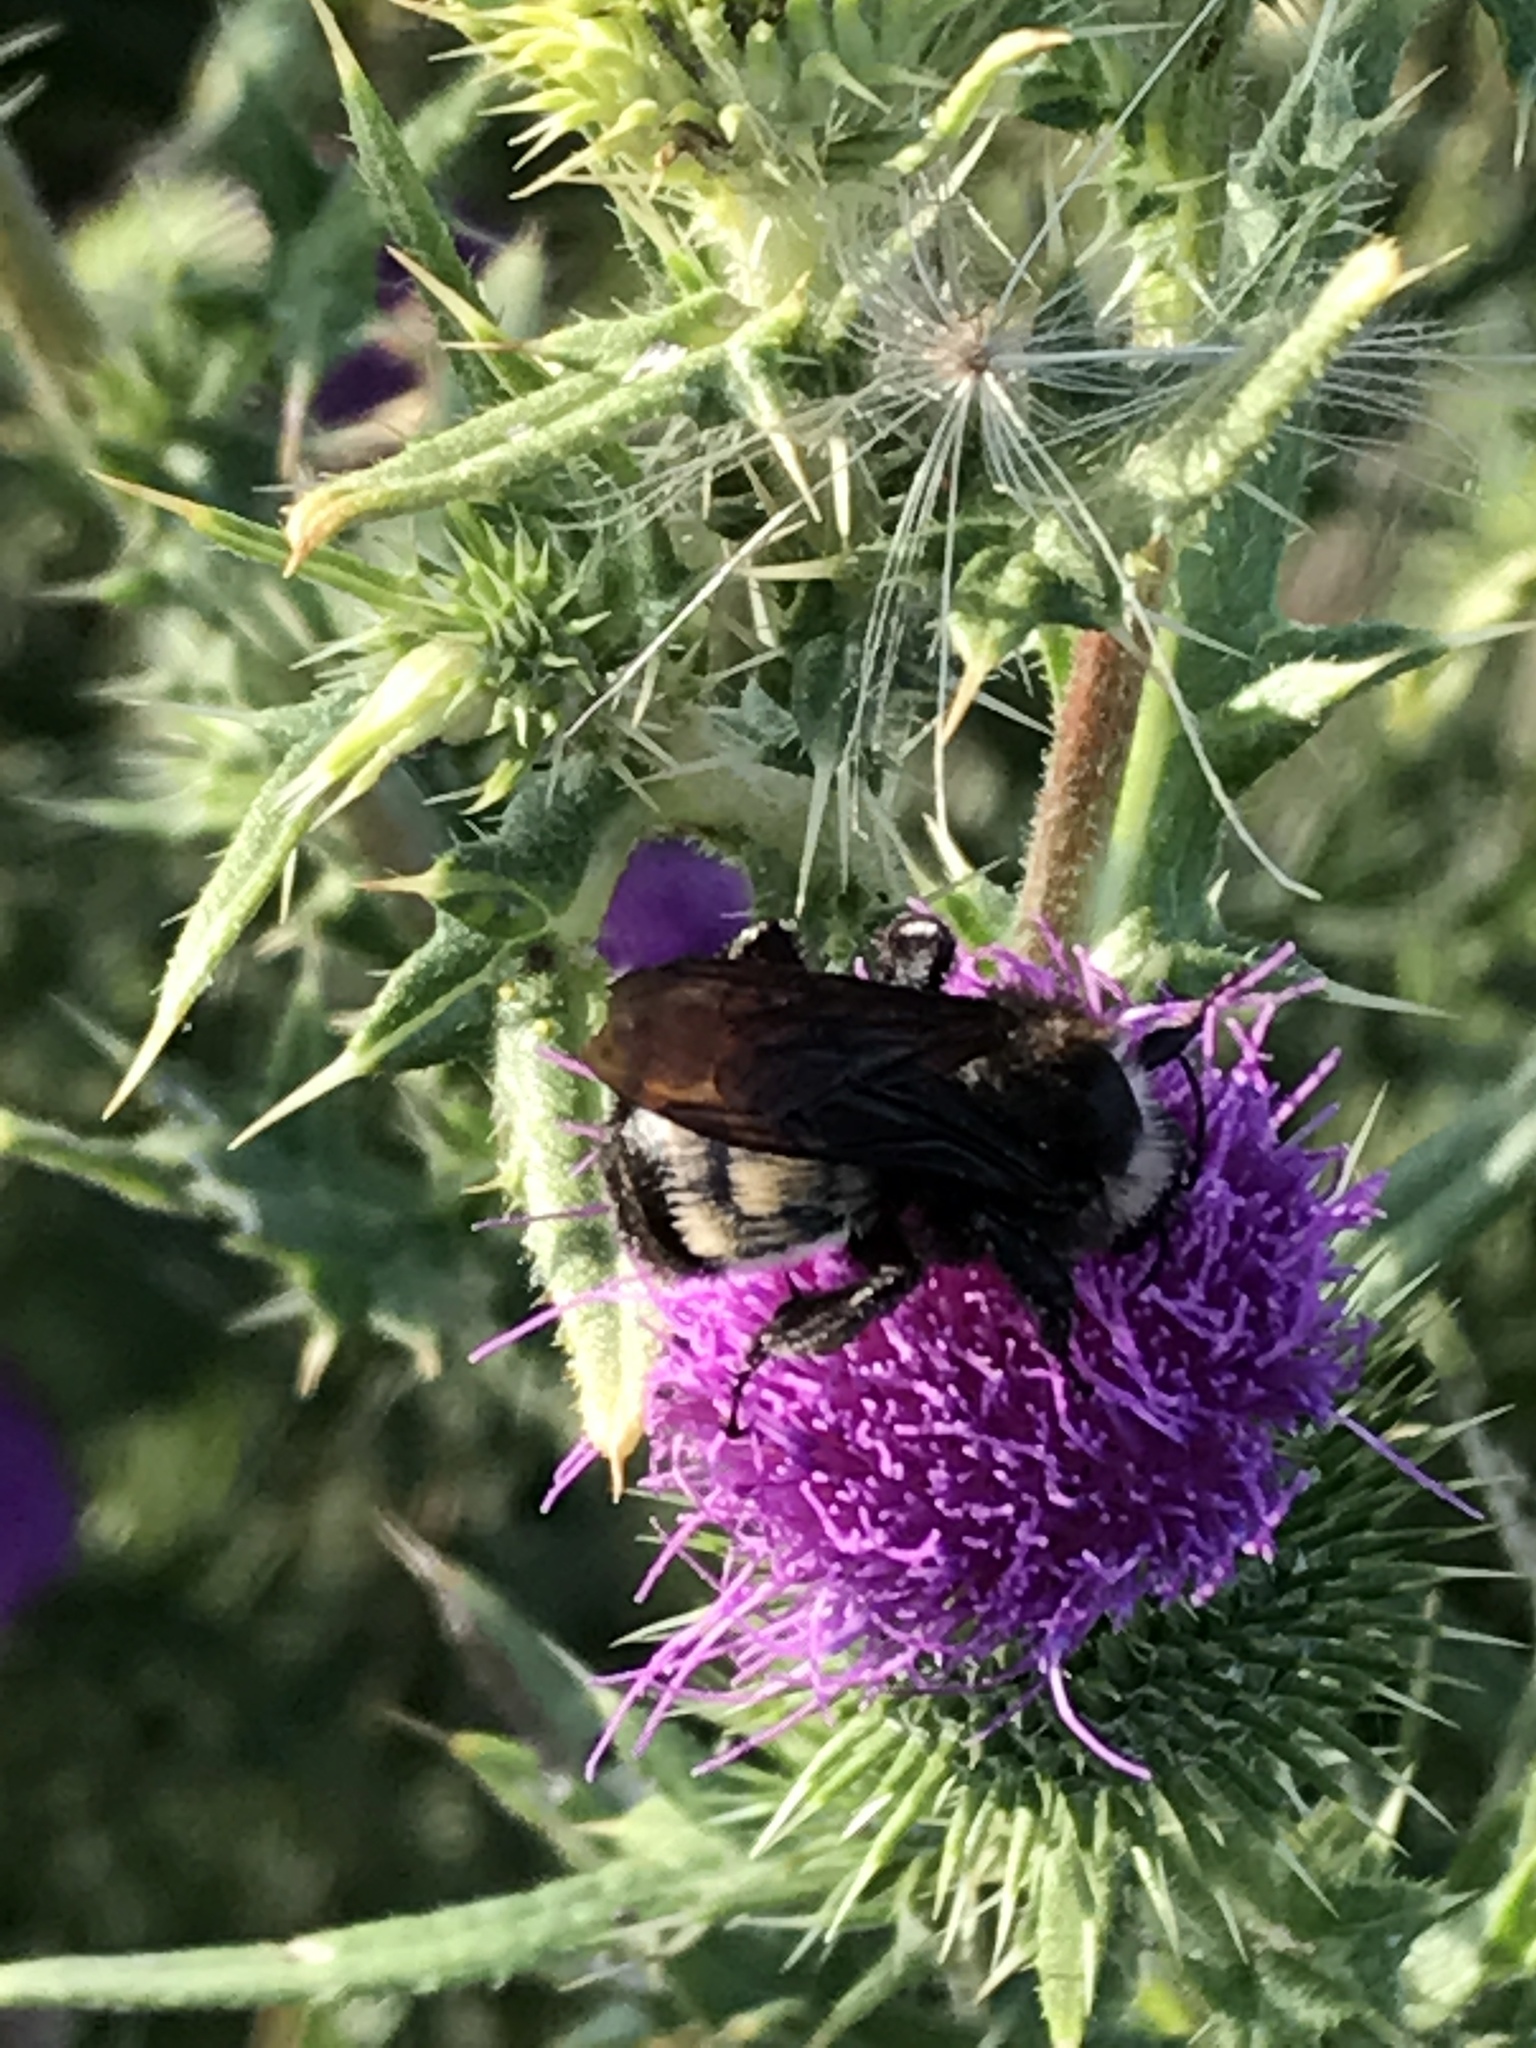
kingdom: Animalia
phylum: Arthropoda
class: Insecta
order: Hymenoptera
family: Apidae
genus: Bombus
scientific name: Bombus pensylvanicus
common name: Bumble bee
